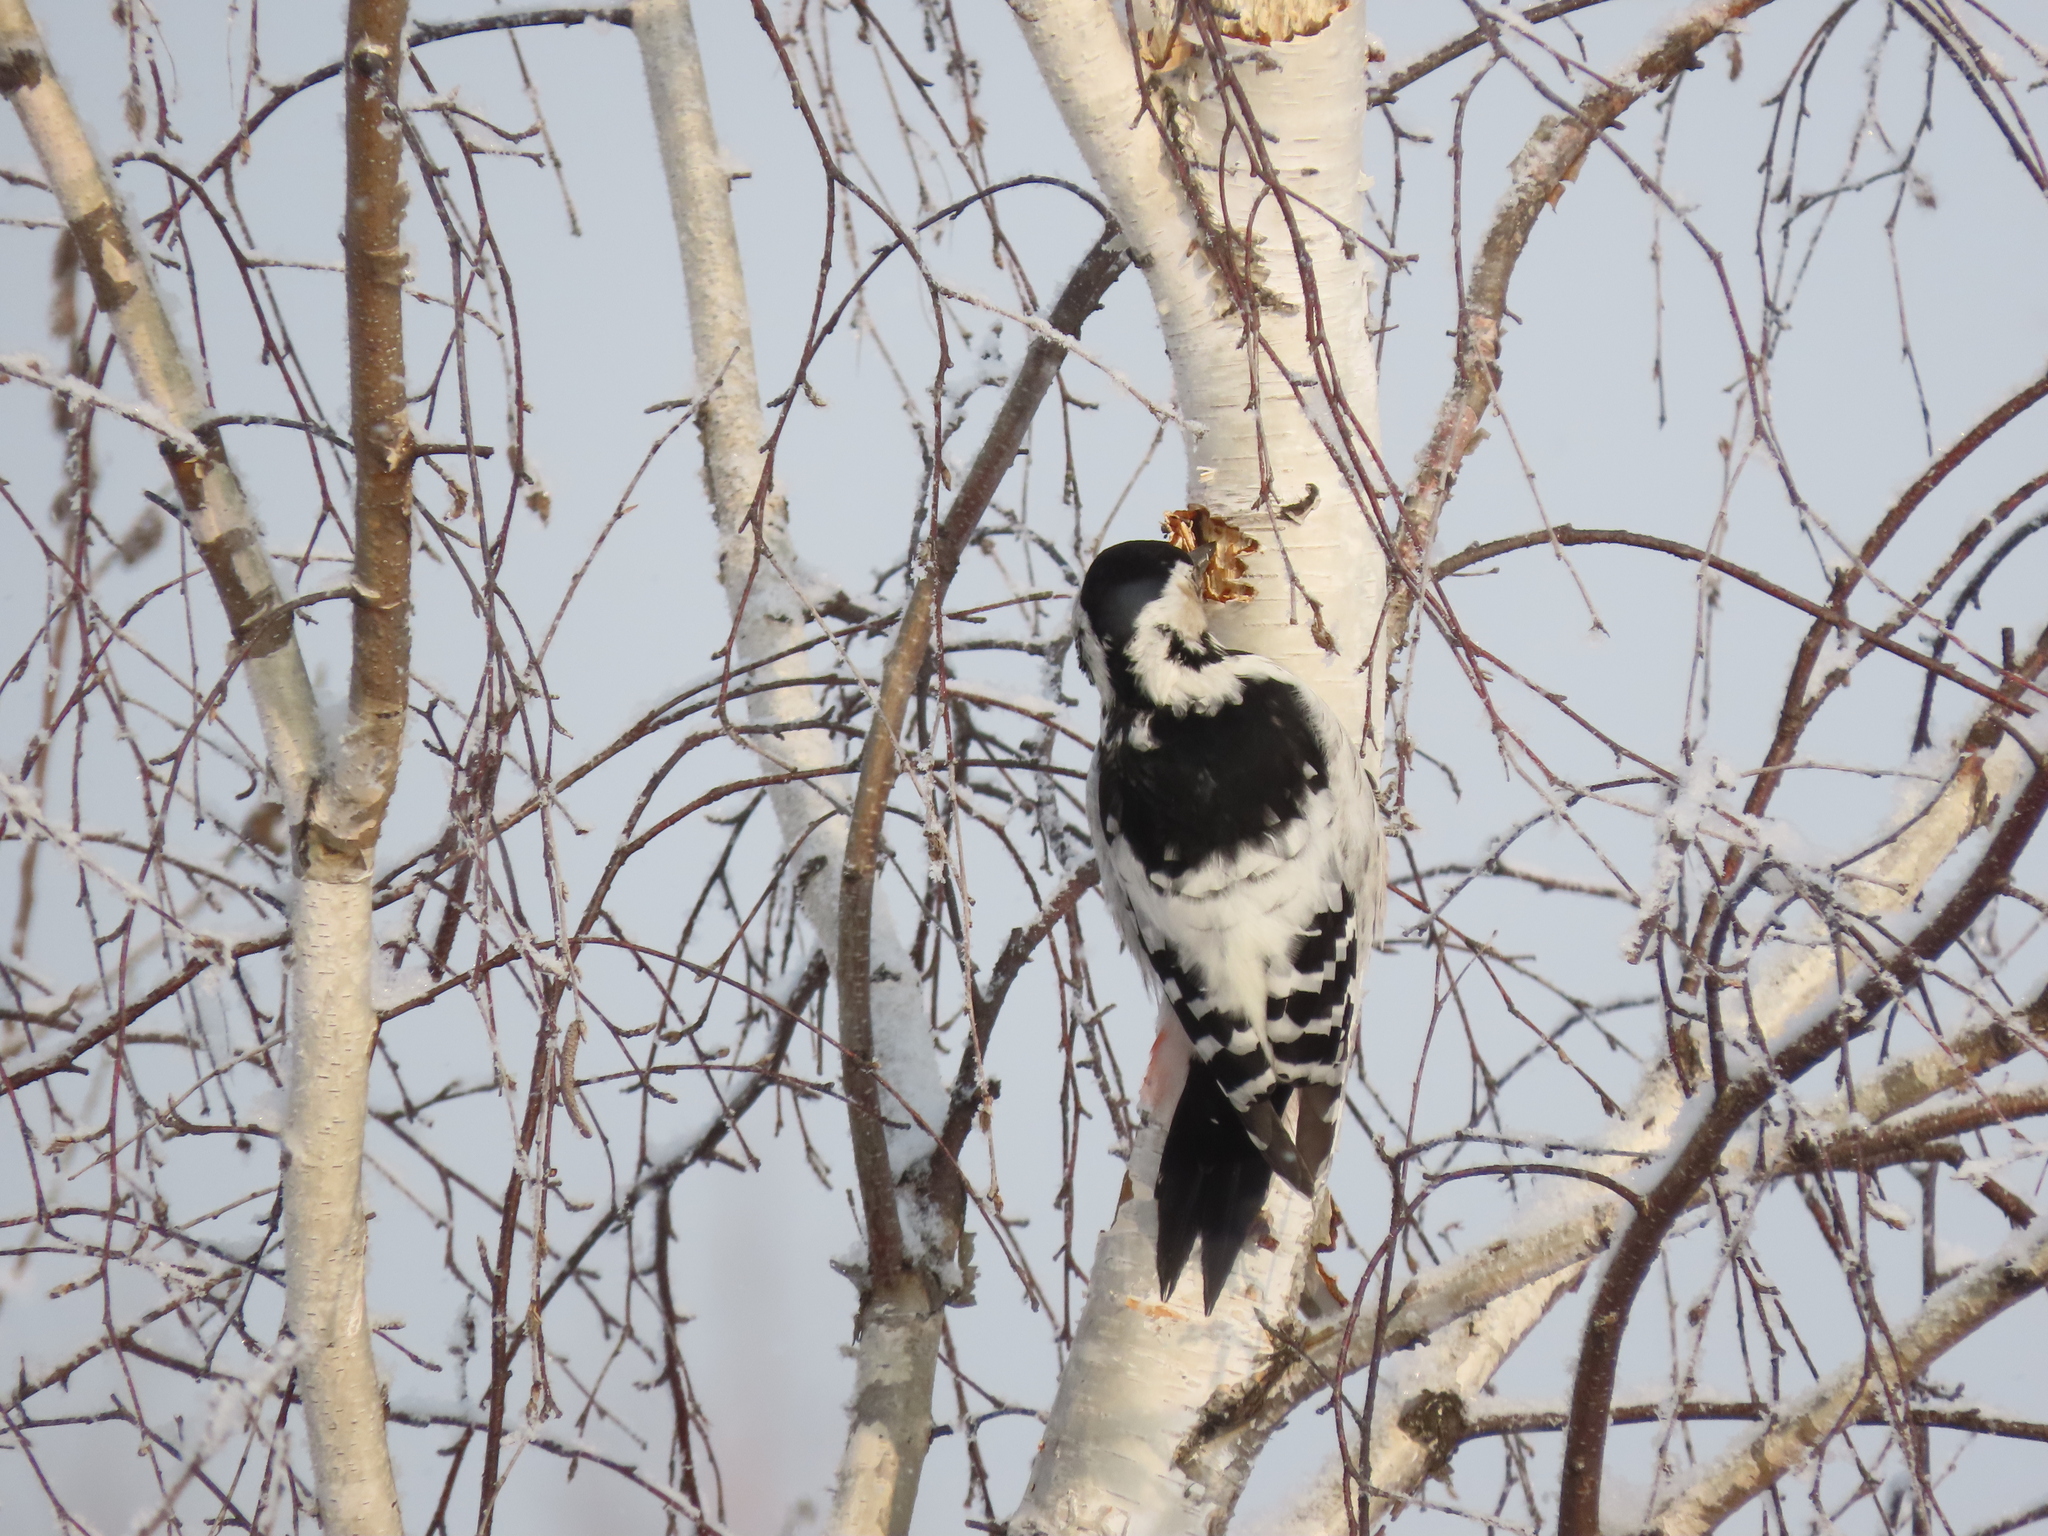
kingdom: Animalia
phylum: Chordata
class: Aves
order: Piciformes
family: Picidae
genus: Dendrocopos
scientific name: Dendrocopos leucotos
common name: White-backed woodpecker
